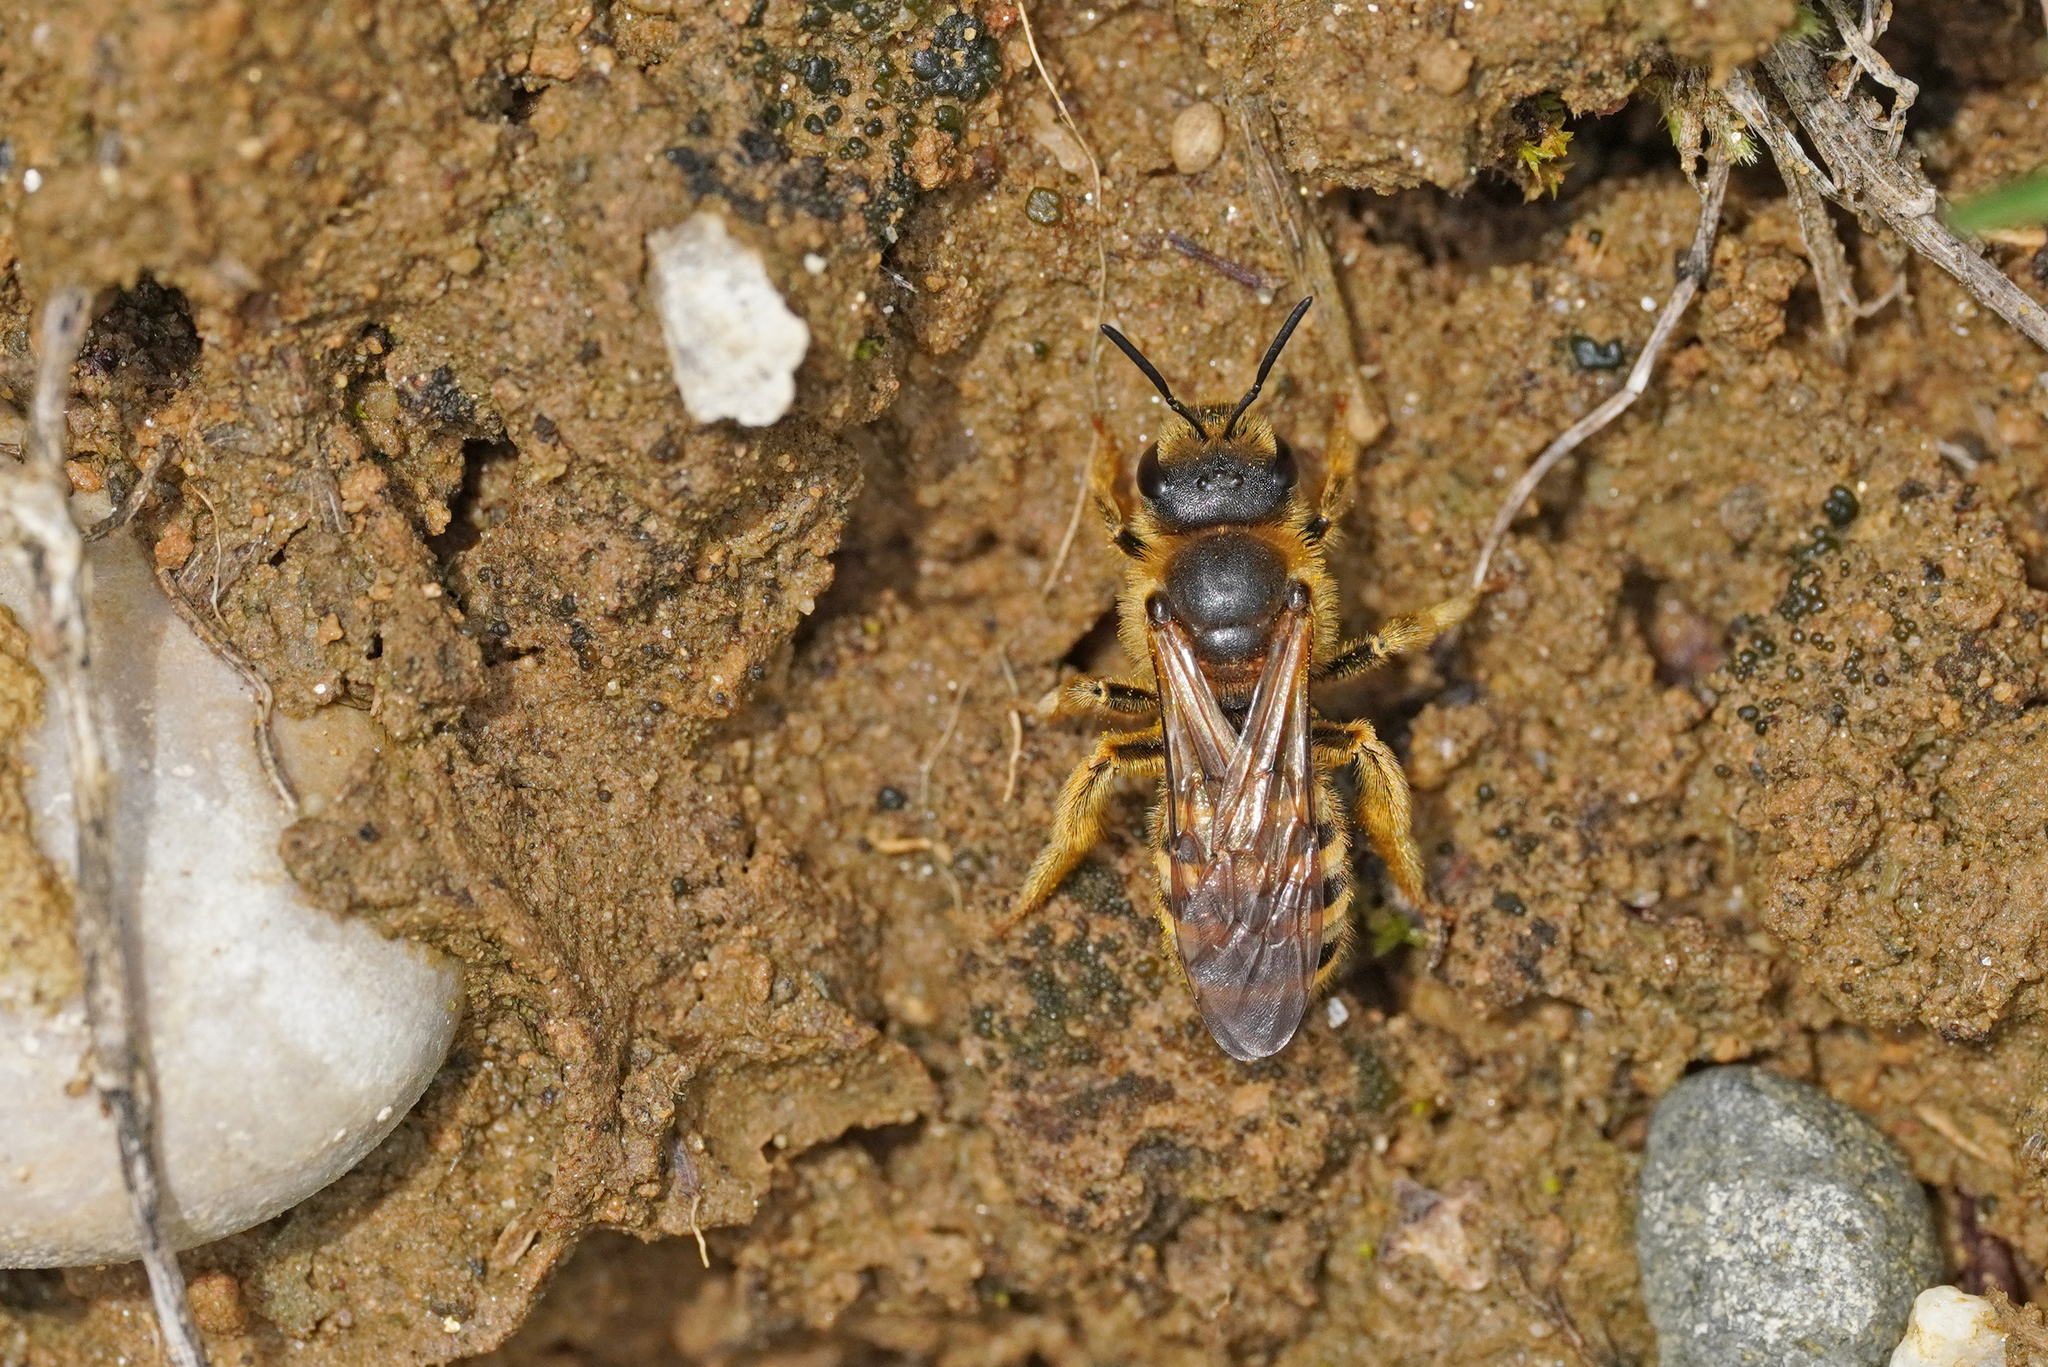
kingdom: Animalia
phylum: Arthropoda
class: Insecta
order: Hymenoptera
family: Halictidae
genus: Halictus
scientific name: Halictus scabiosae
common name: Great banded furrow bee
